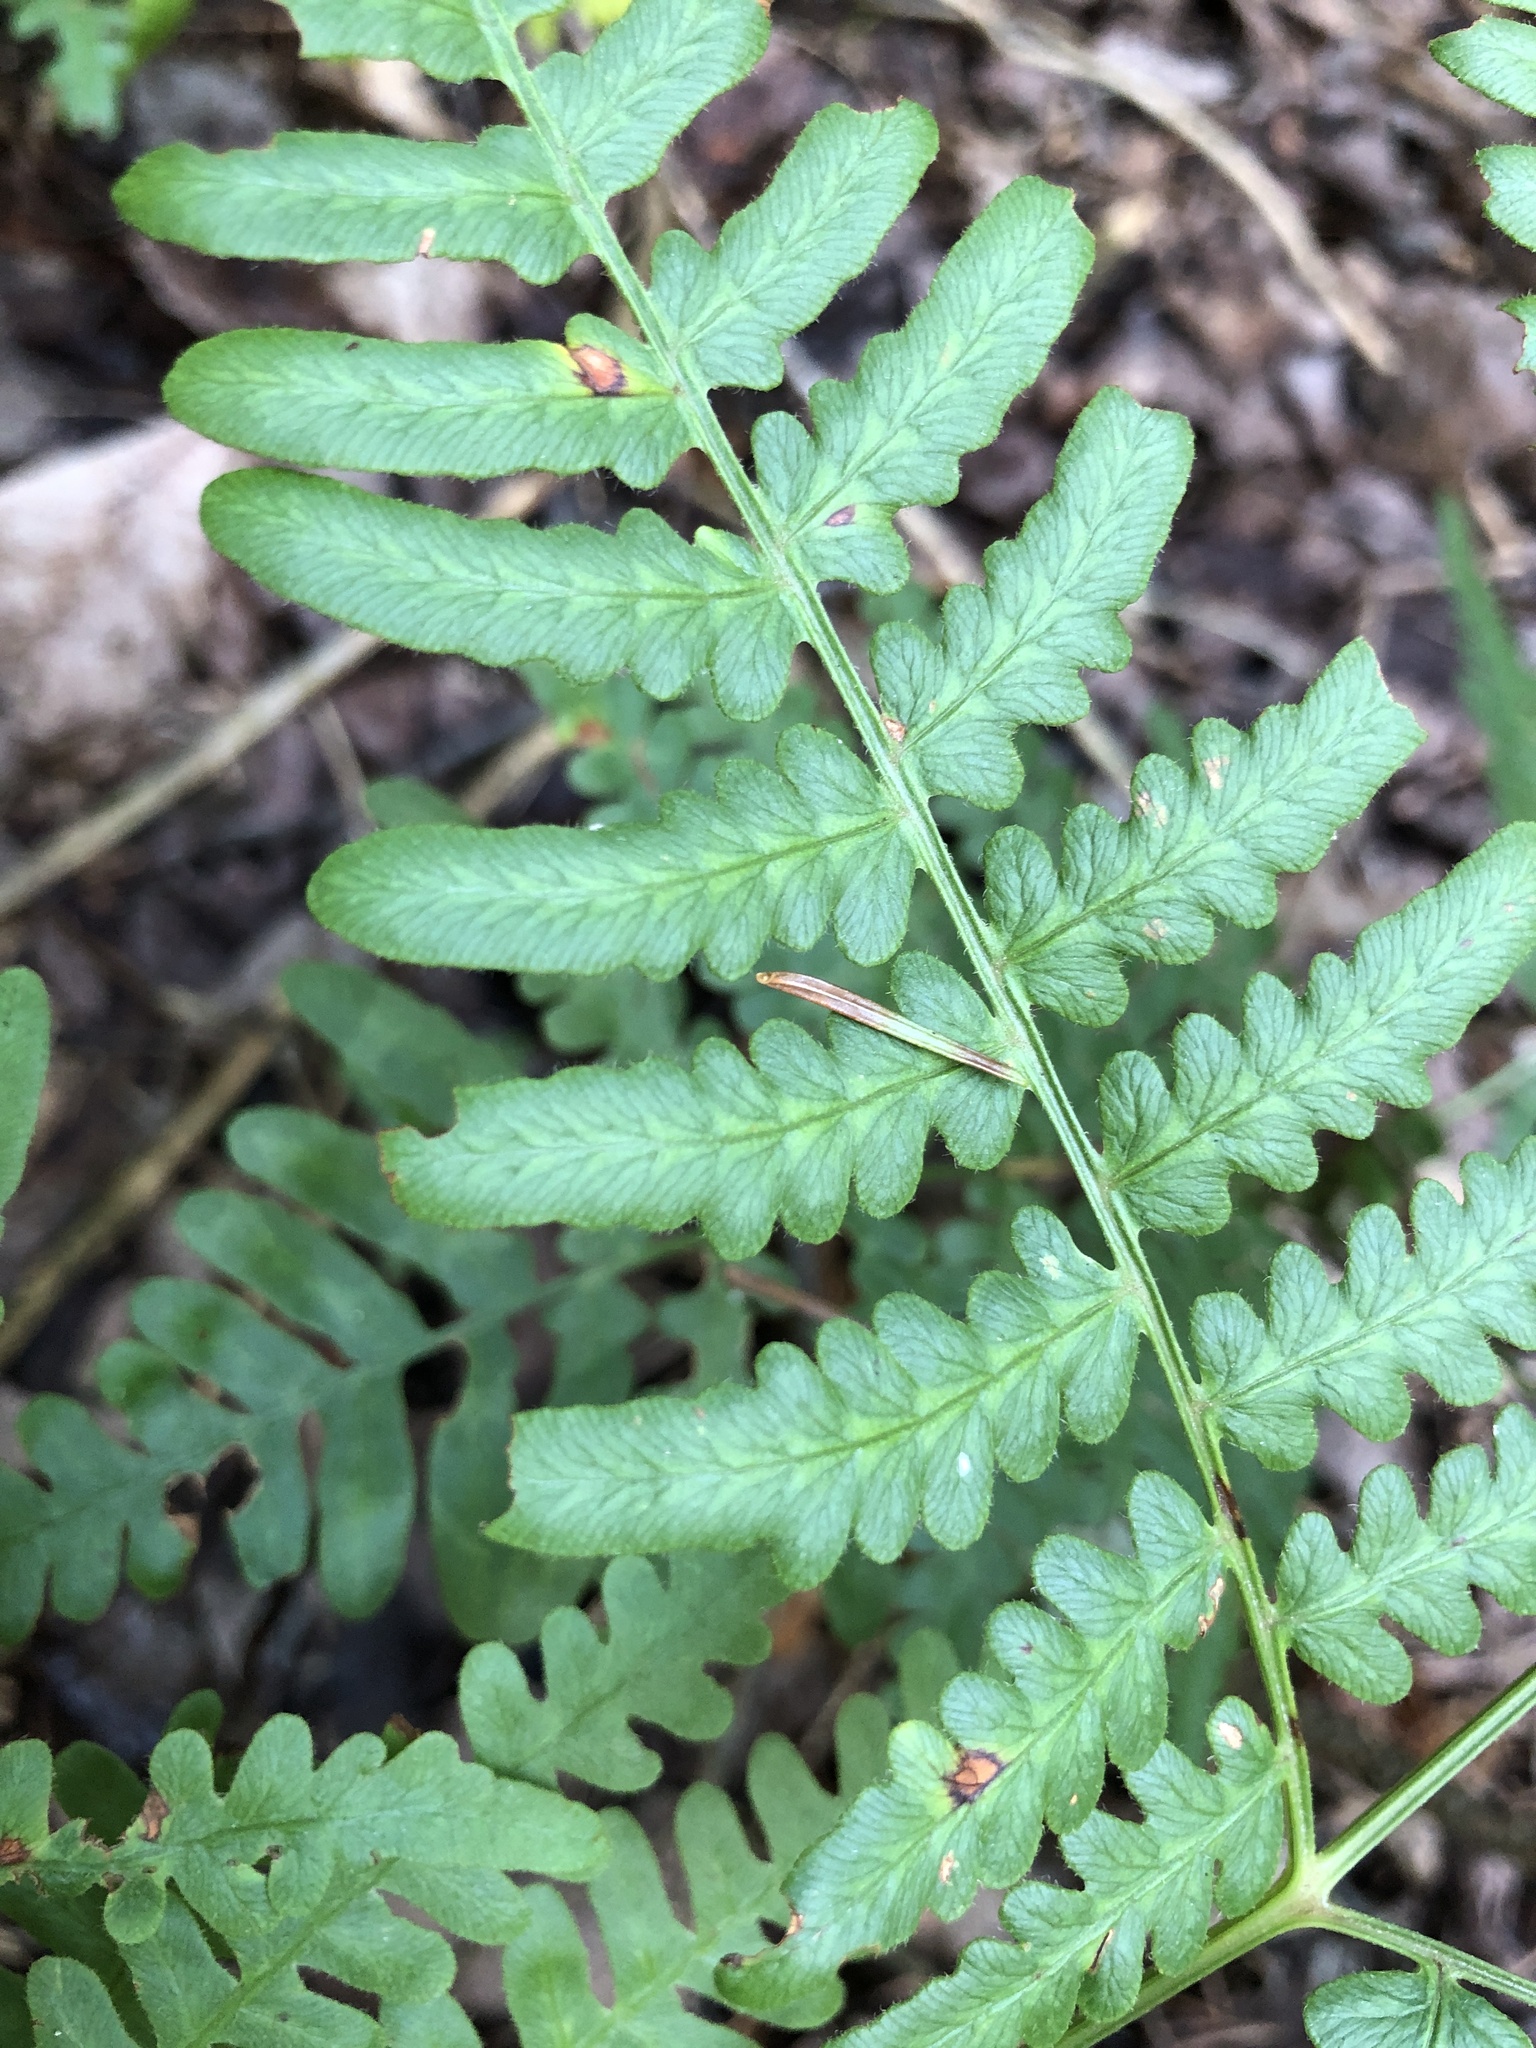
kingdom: Plantae
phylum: Tracheophyta
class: Polypodiopsida
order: Polypodiales
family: Dennstaedtiaceae
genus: Pteridium
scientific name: Pteridium aquilinum
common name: Bracken
